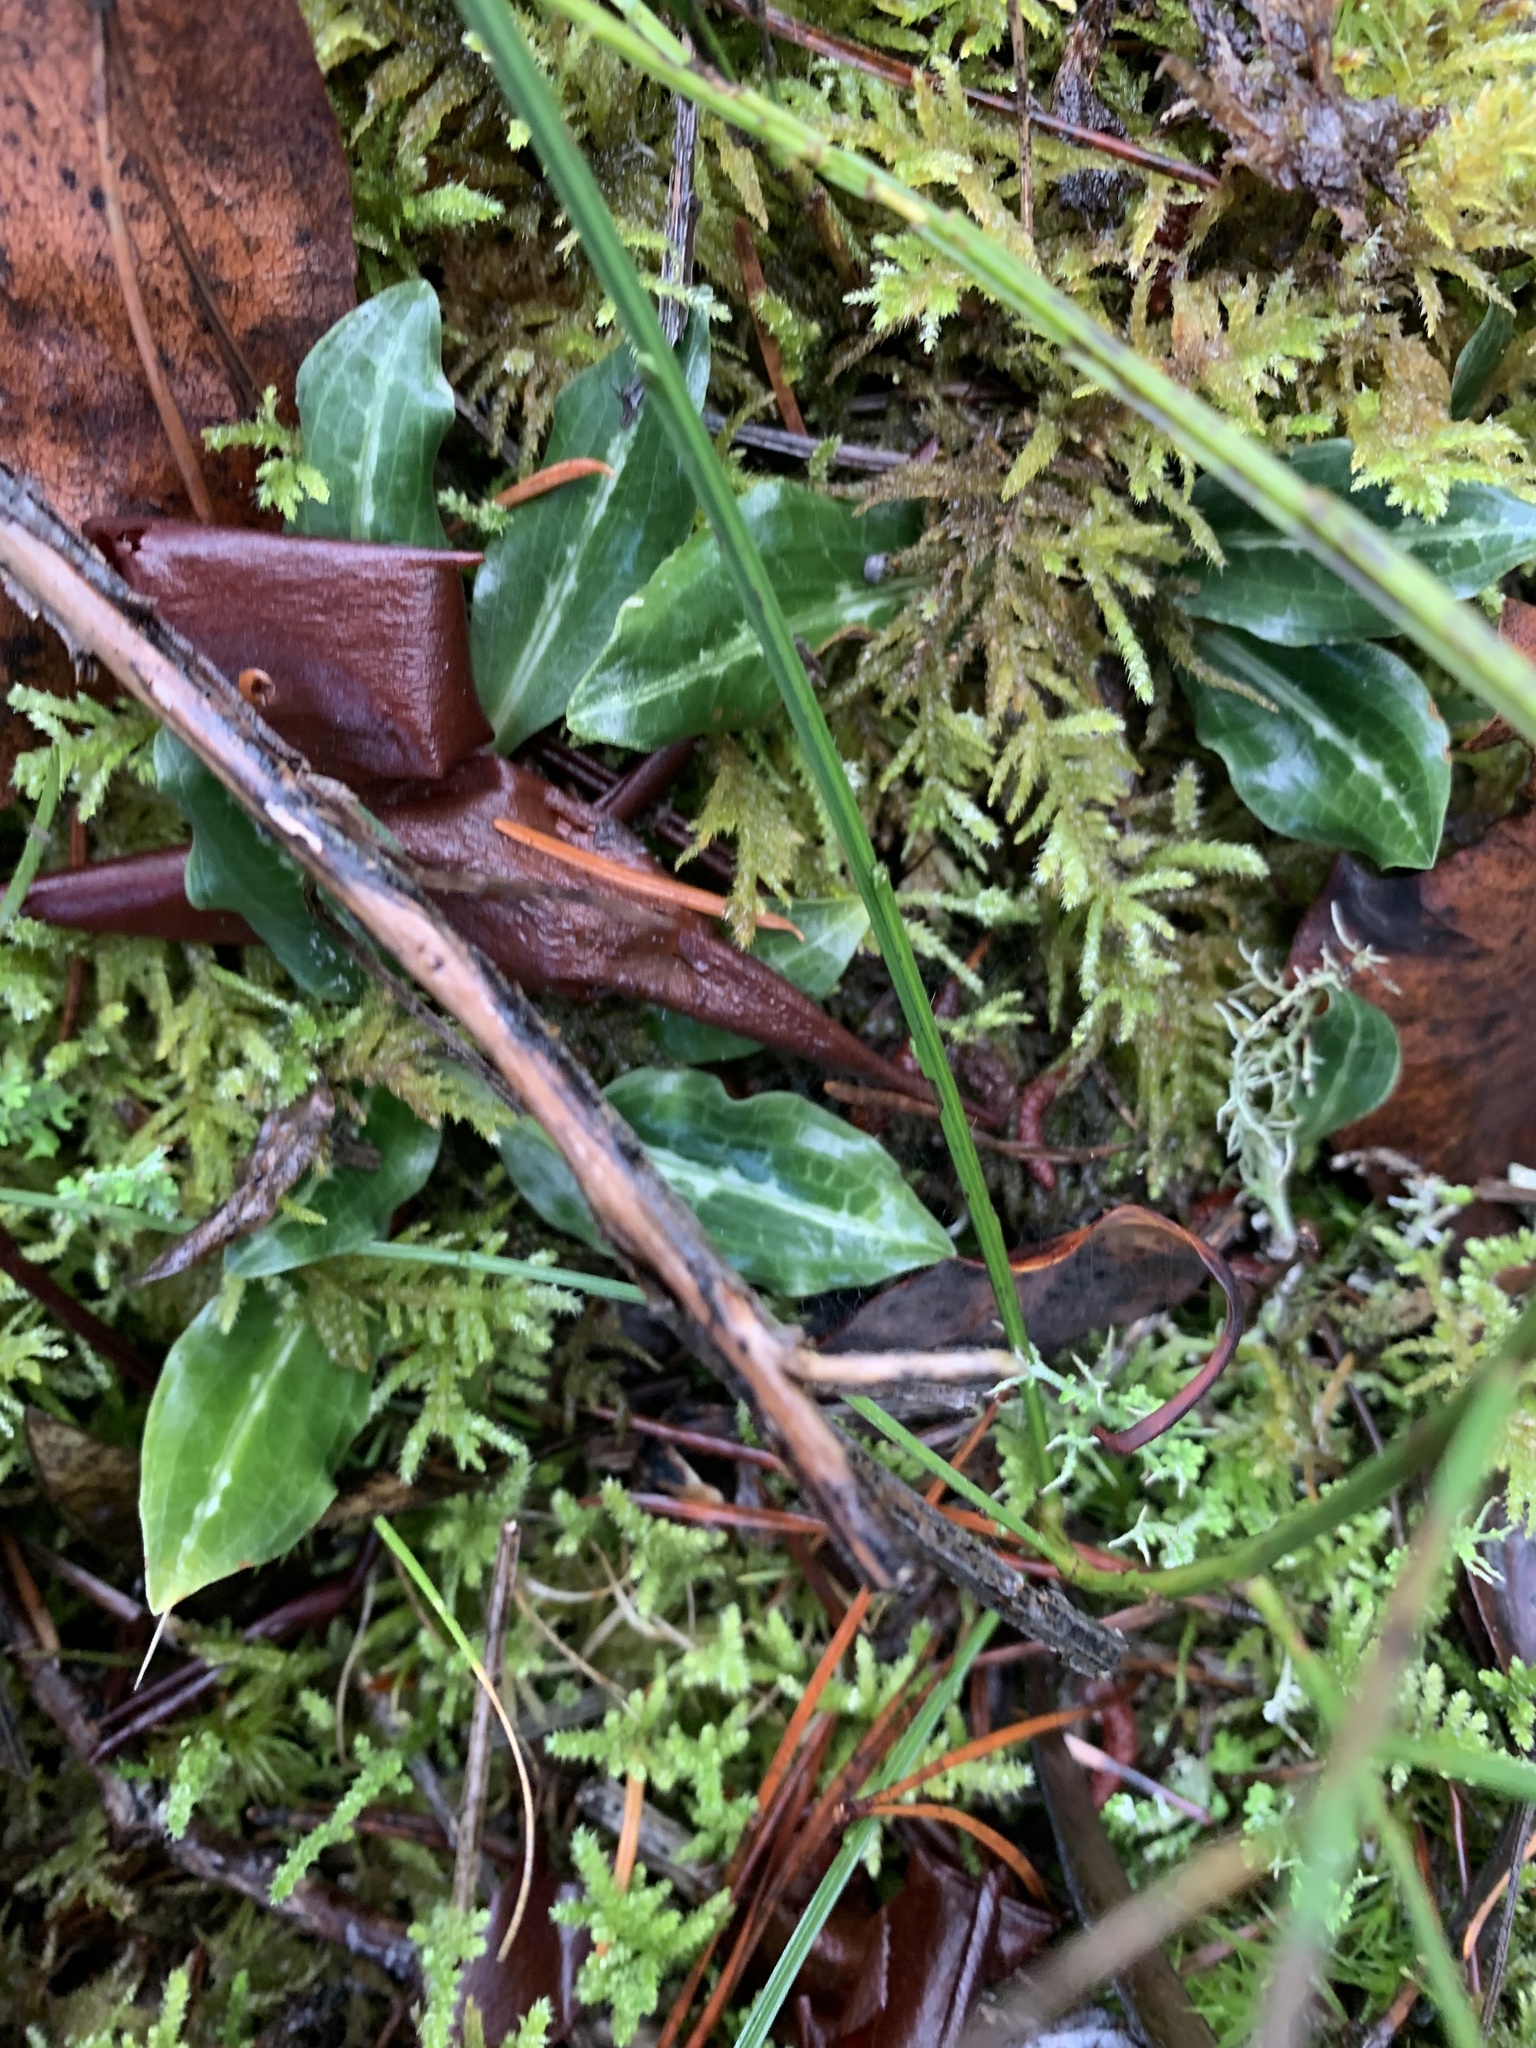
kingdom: Plantae
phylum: Tracheophyta
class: Liliopsida
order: Asparagales
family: Orchidaceae
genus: Goodyera
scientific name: Goodyera oblongifolia
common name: Giant rattlesnake-plantain
